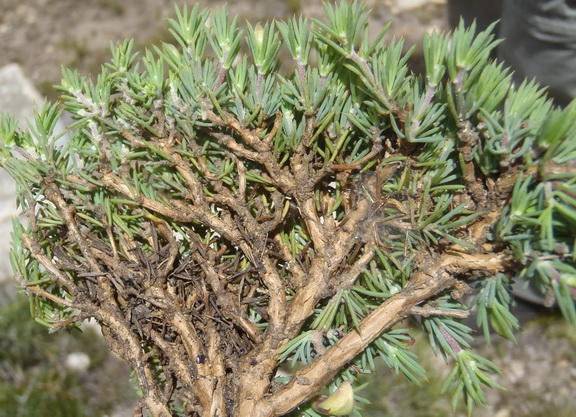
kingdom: Plantae
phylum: Tracheophyta
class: Magnoliopsida
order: Fabales
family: Fabaceae
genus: Aspalathus
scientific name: Aspalathus rigidifolia
